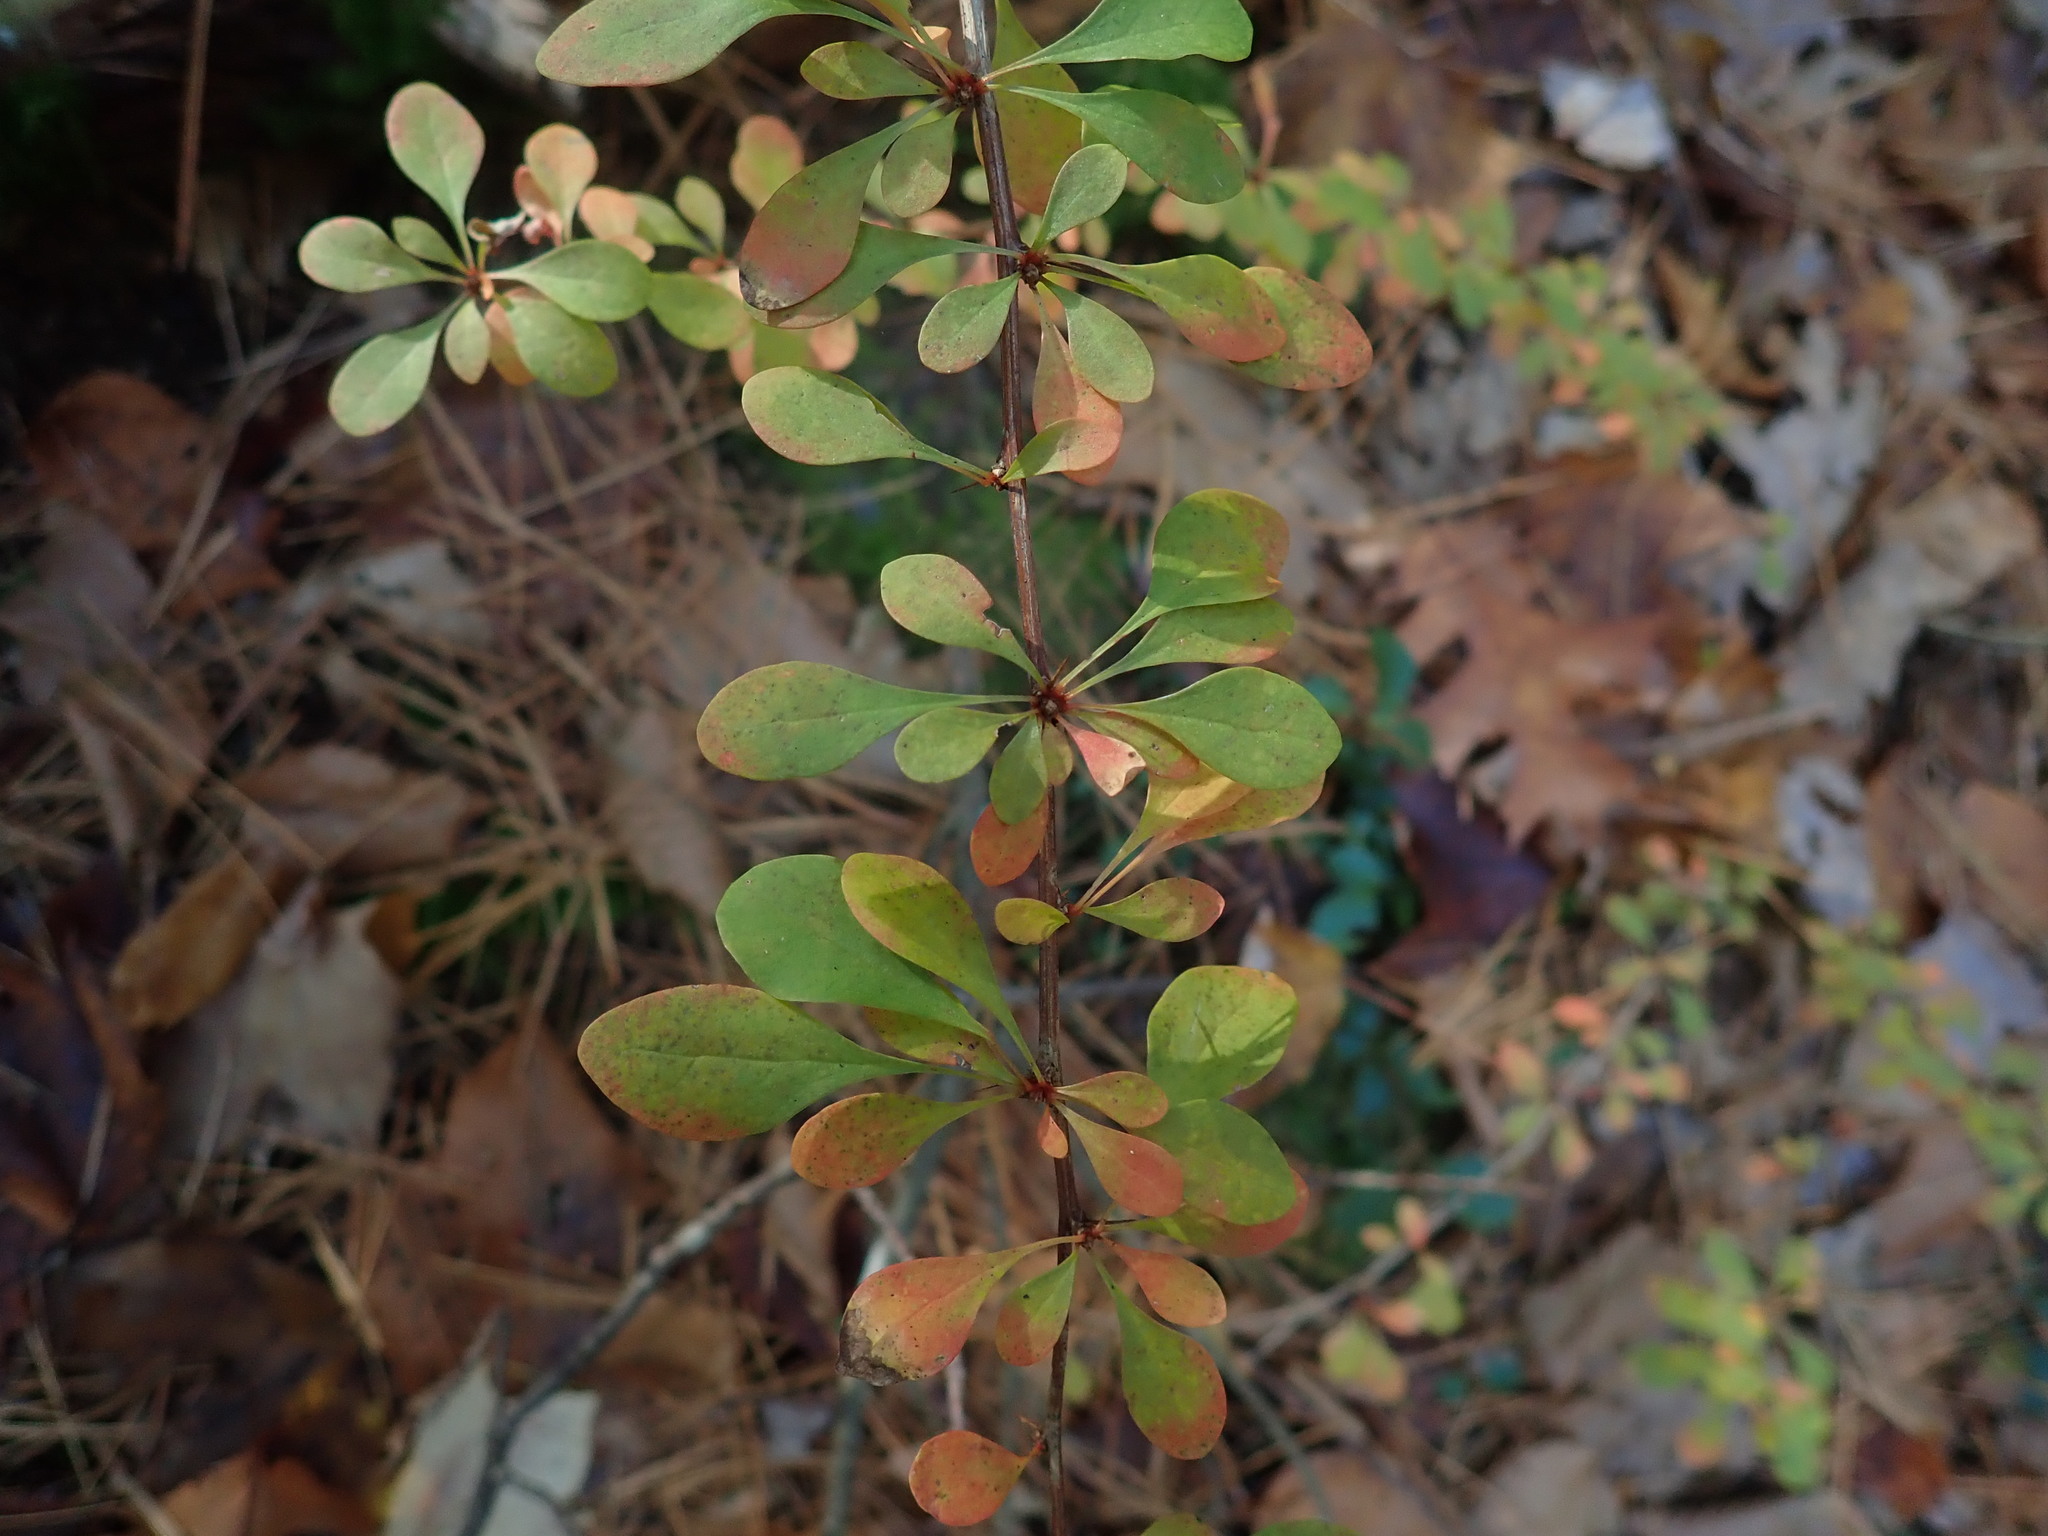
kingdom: Plantae
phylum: Tracheophyta
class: Magnoliopsida
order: Ranunculales
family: Berberidaceae
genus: Berberis
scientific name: Berberis thunbergii
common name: Japanese barberry
